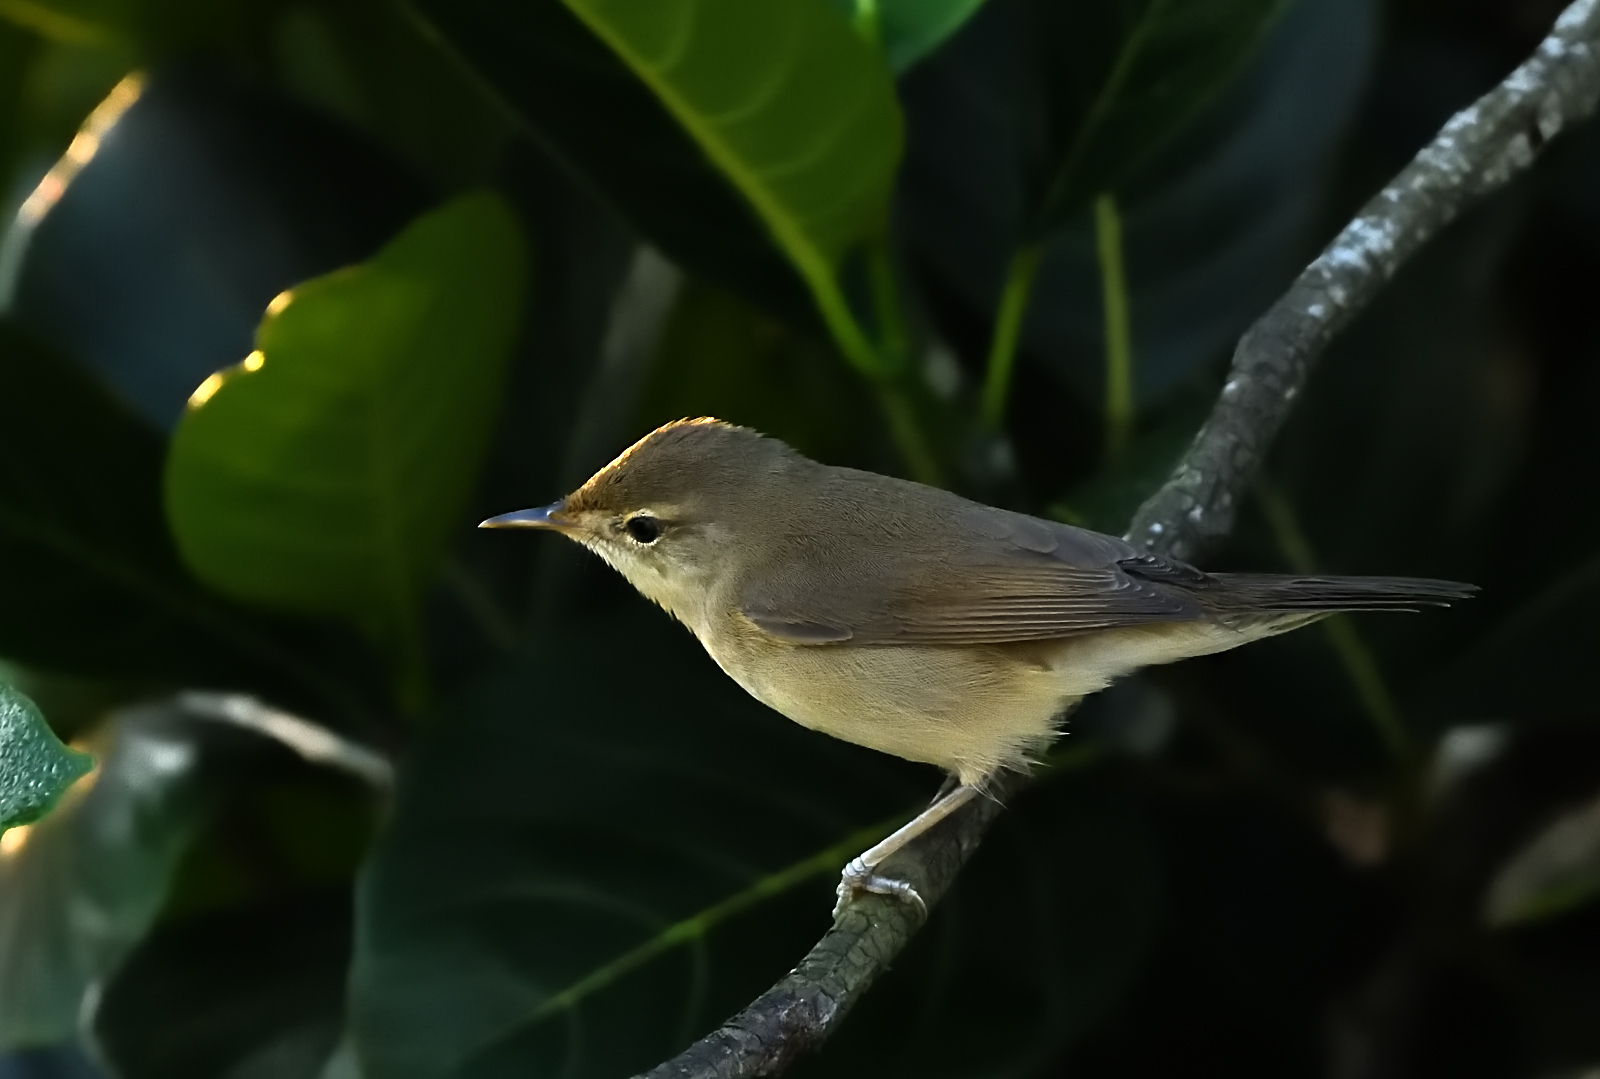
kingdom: Animalia
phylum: Chordata
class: Aves
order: Passeriformes
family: Acrocephalidae
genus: Acrocephalus
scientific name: Acrocephalus dumetorum
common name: Blyth's reed warbler
